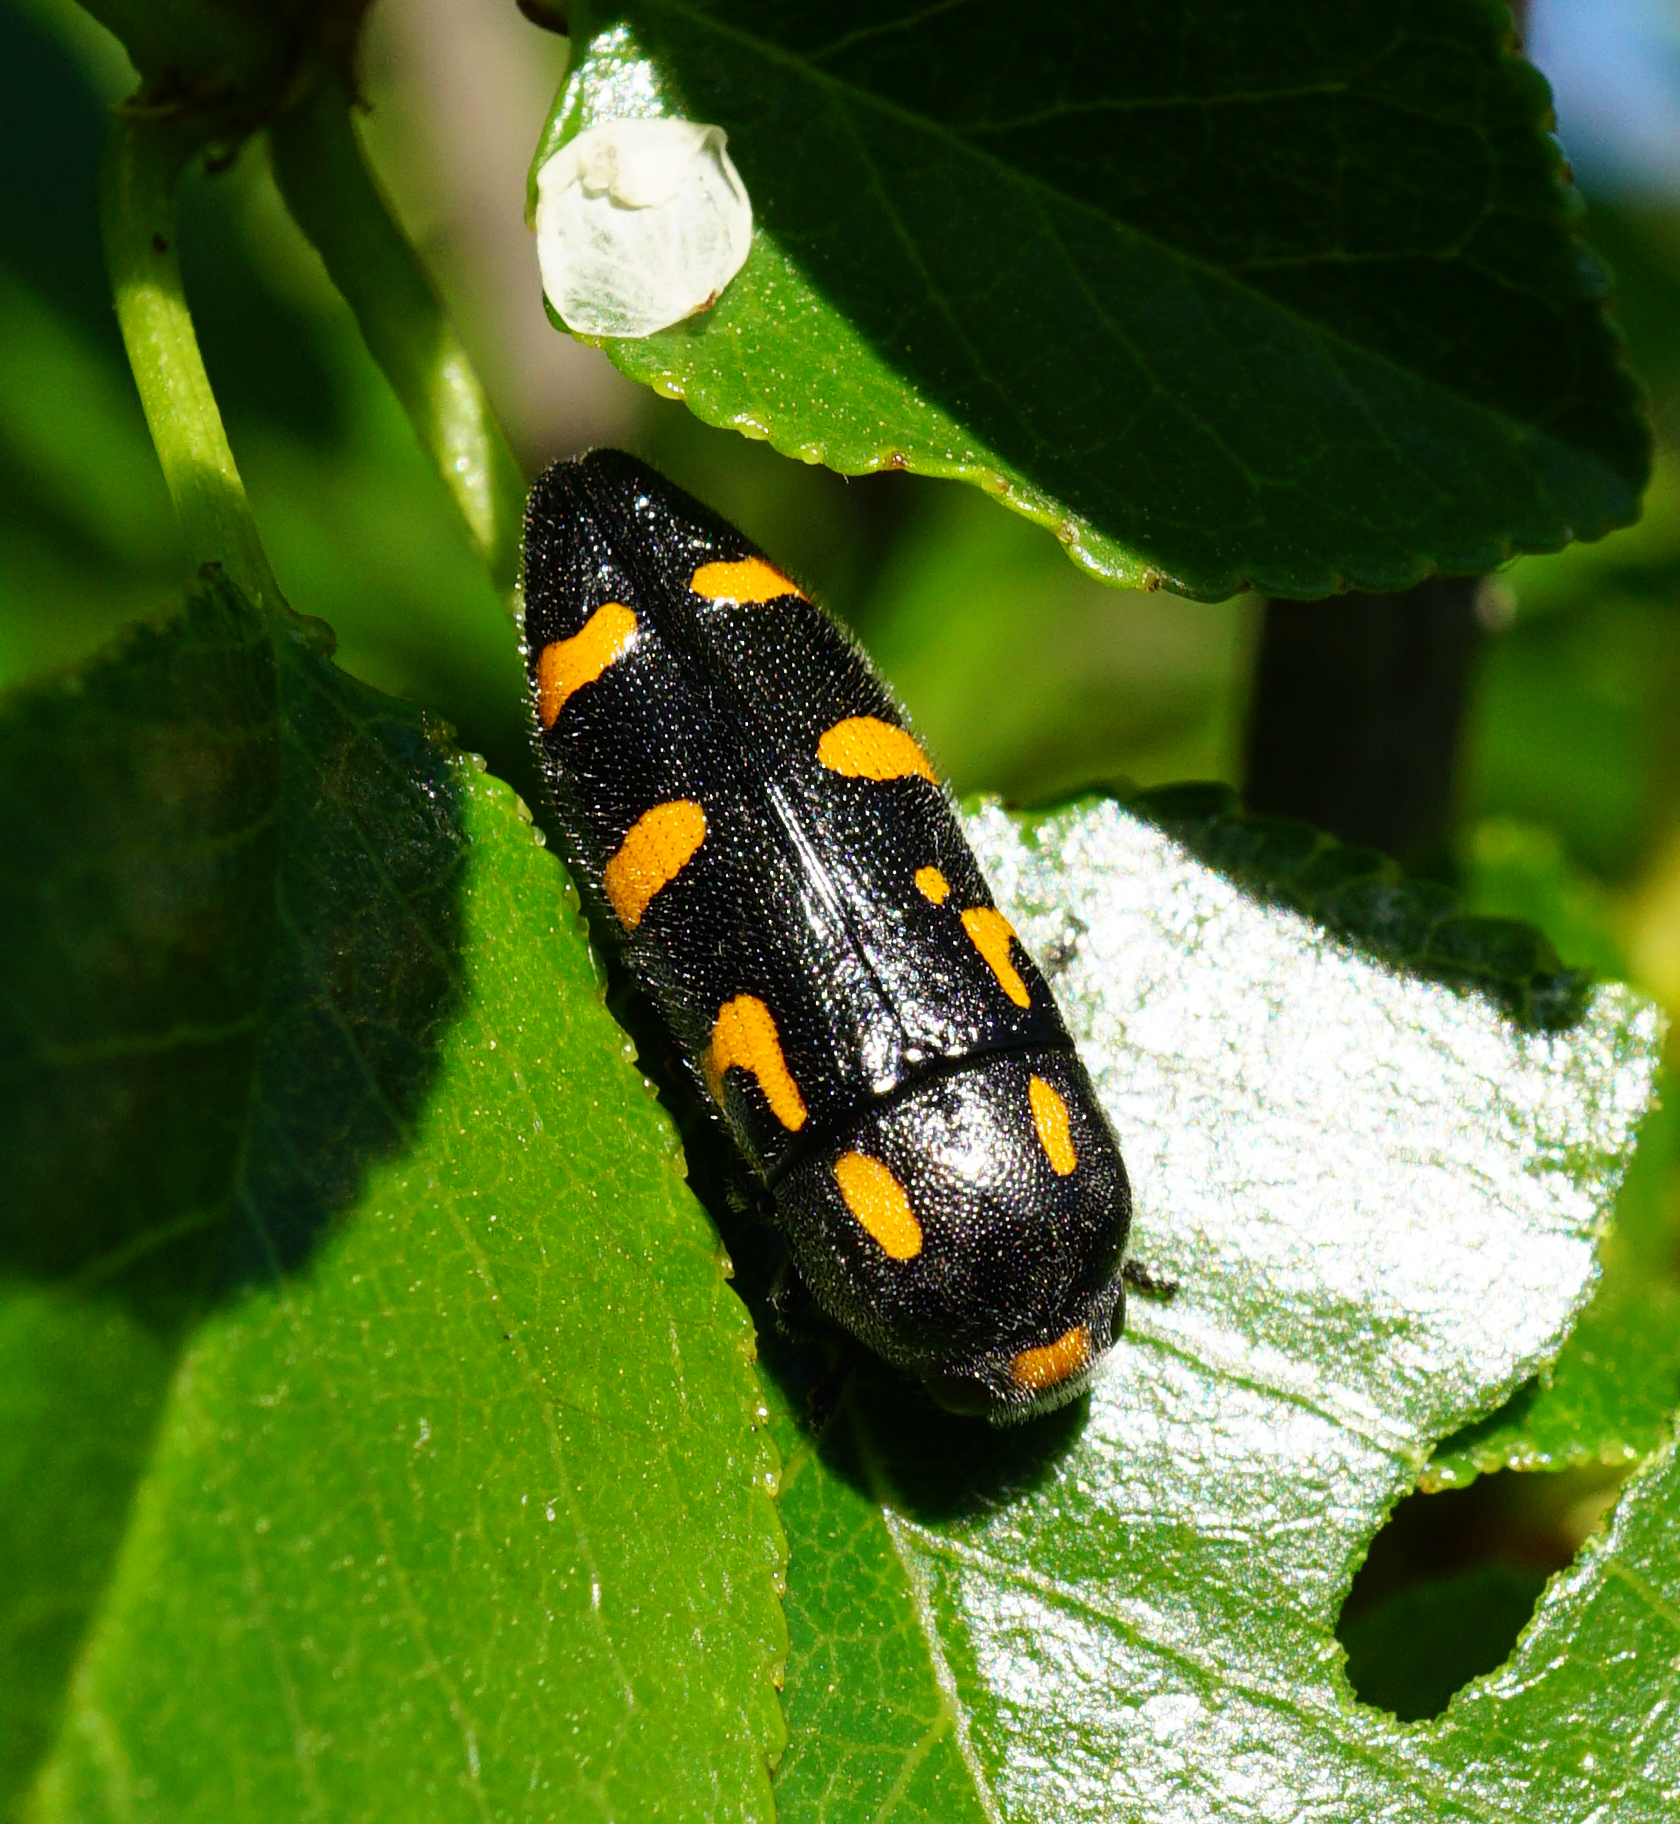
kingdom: Animalia
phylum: Arthropoda
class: Insecta
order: Coleoptera
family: Buprestidae
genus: Ptosima
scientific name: Ptosima undecimmaculata
